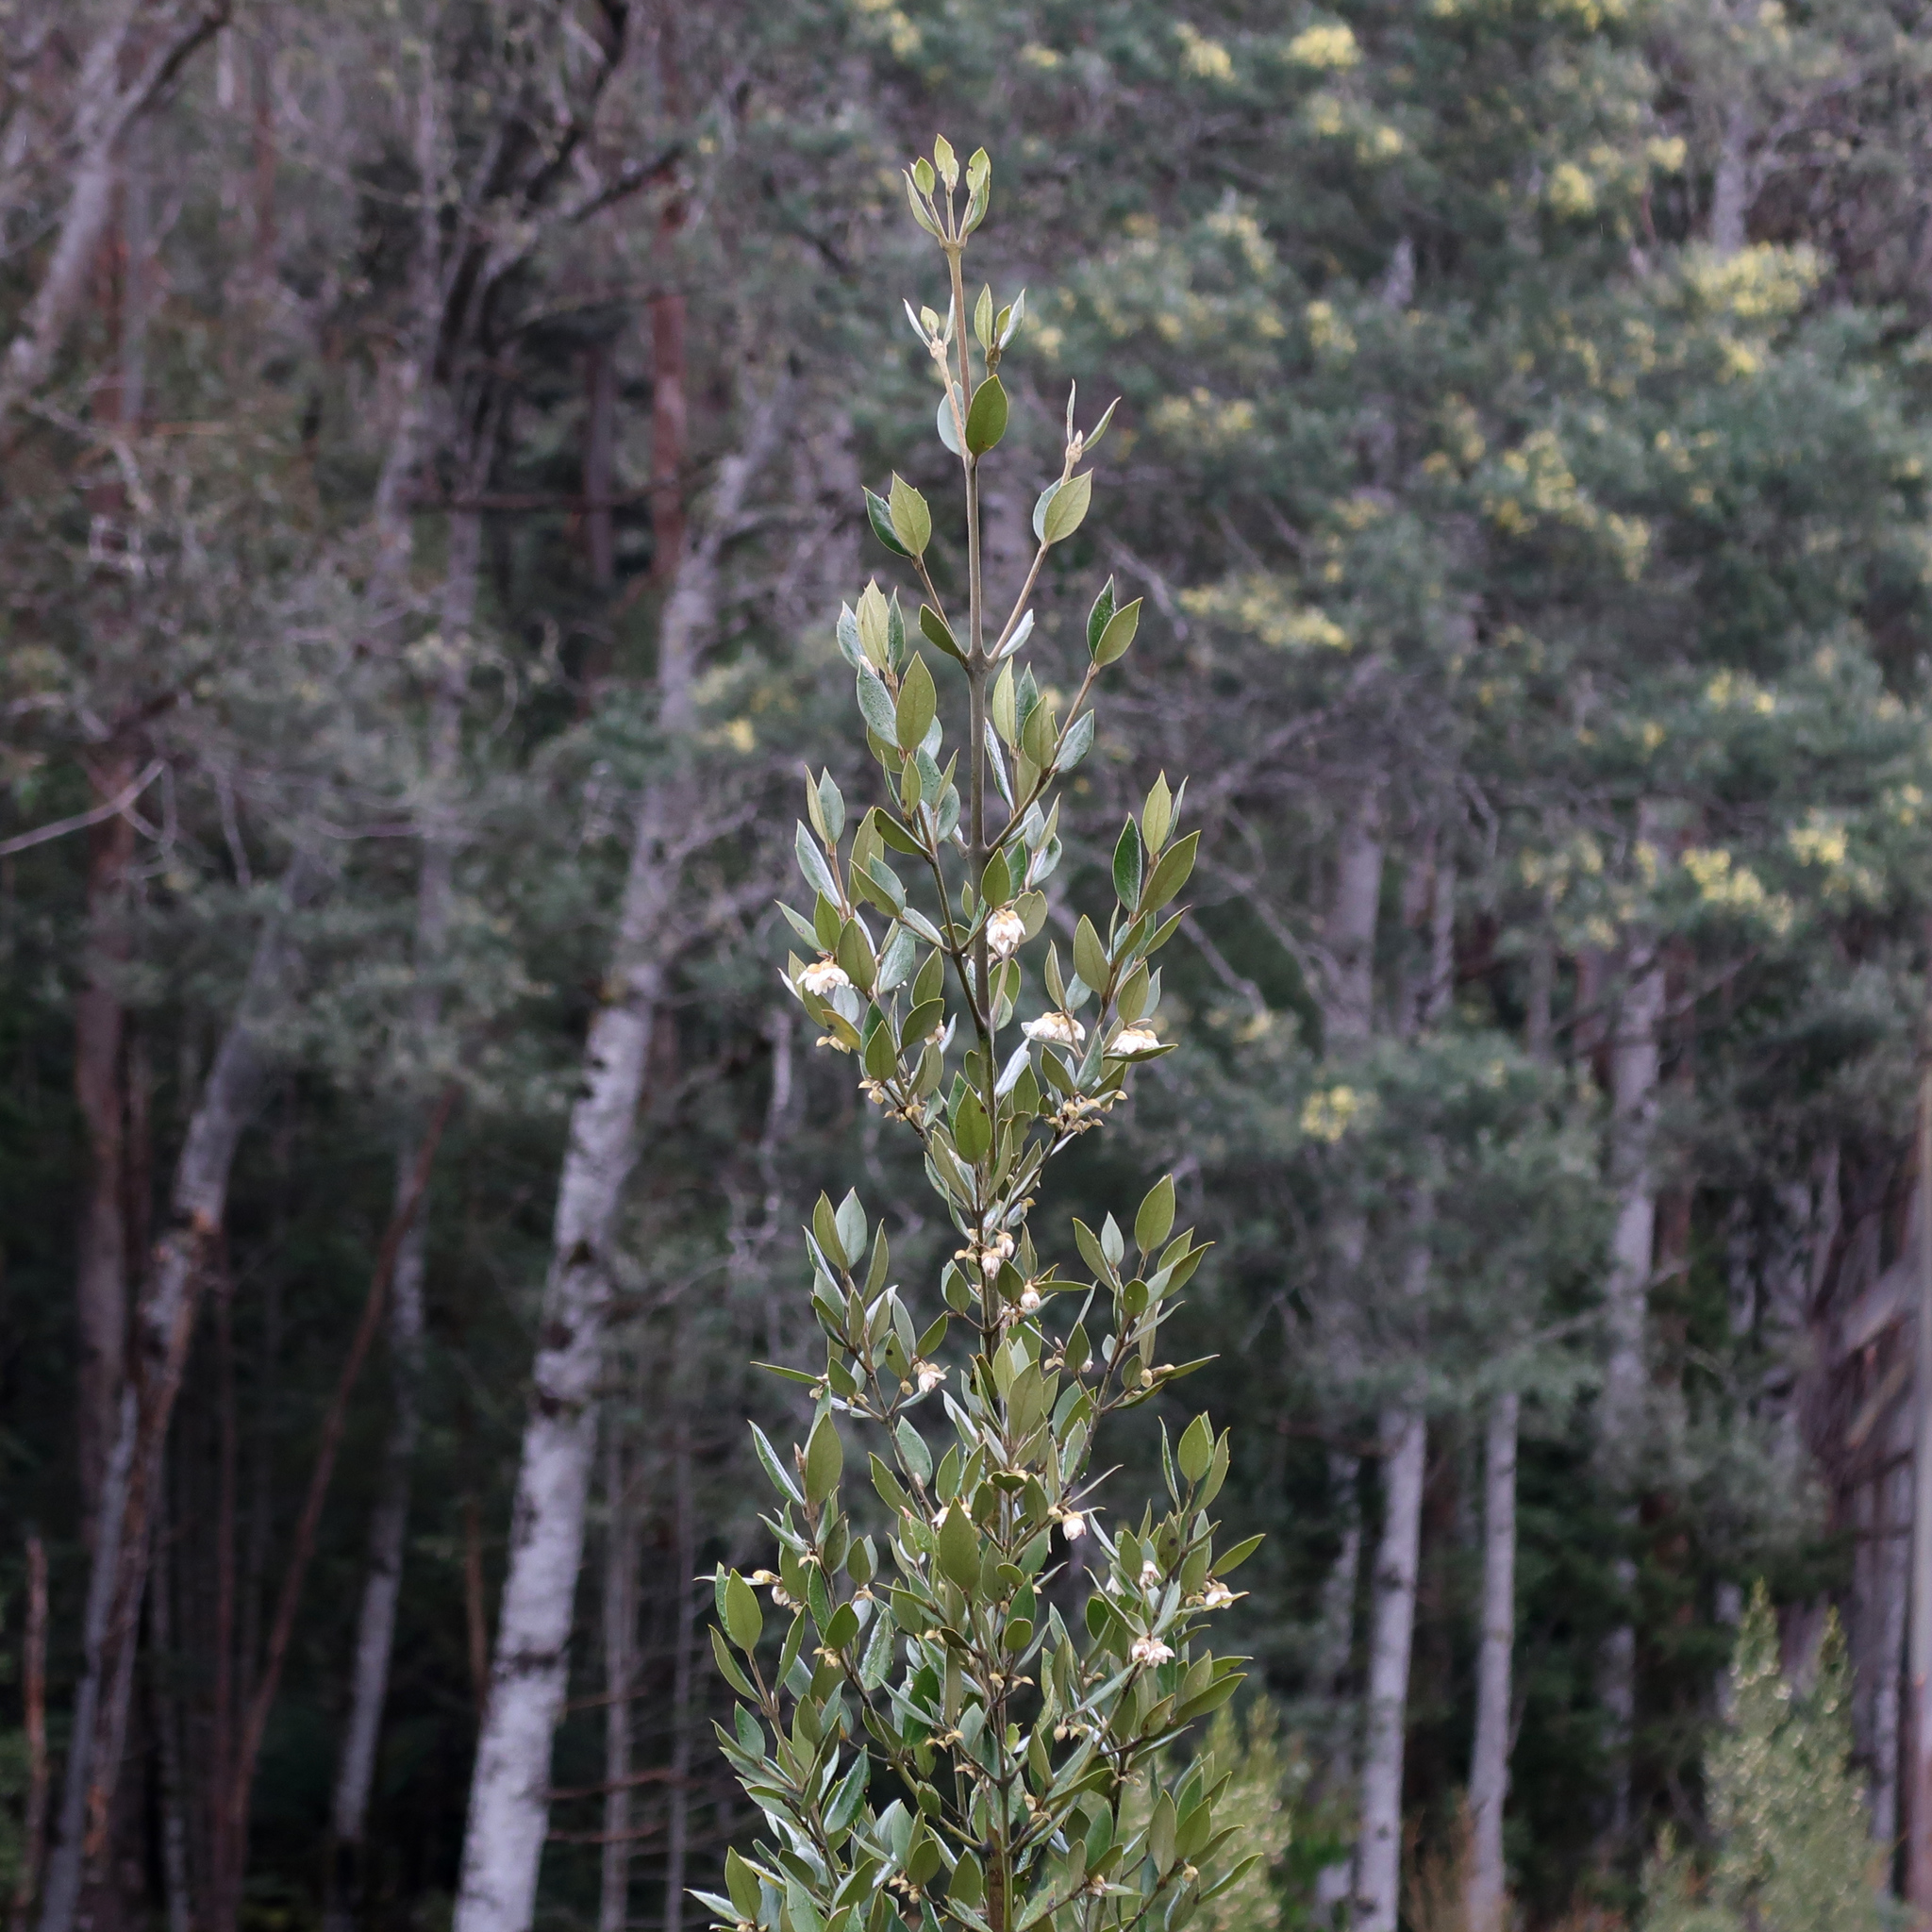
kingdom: Plantae
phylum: Tracheophyta
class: Magnoliopsida
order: Laurales
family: Atherospermataceae
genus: Atherosperma
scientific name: Atherosperma moschatum
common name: Tasmanian-sassafras
